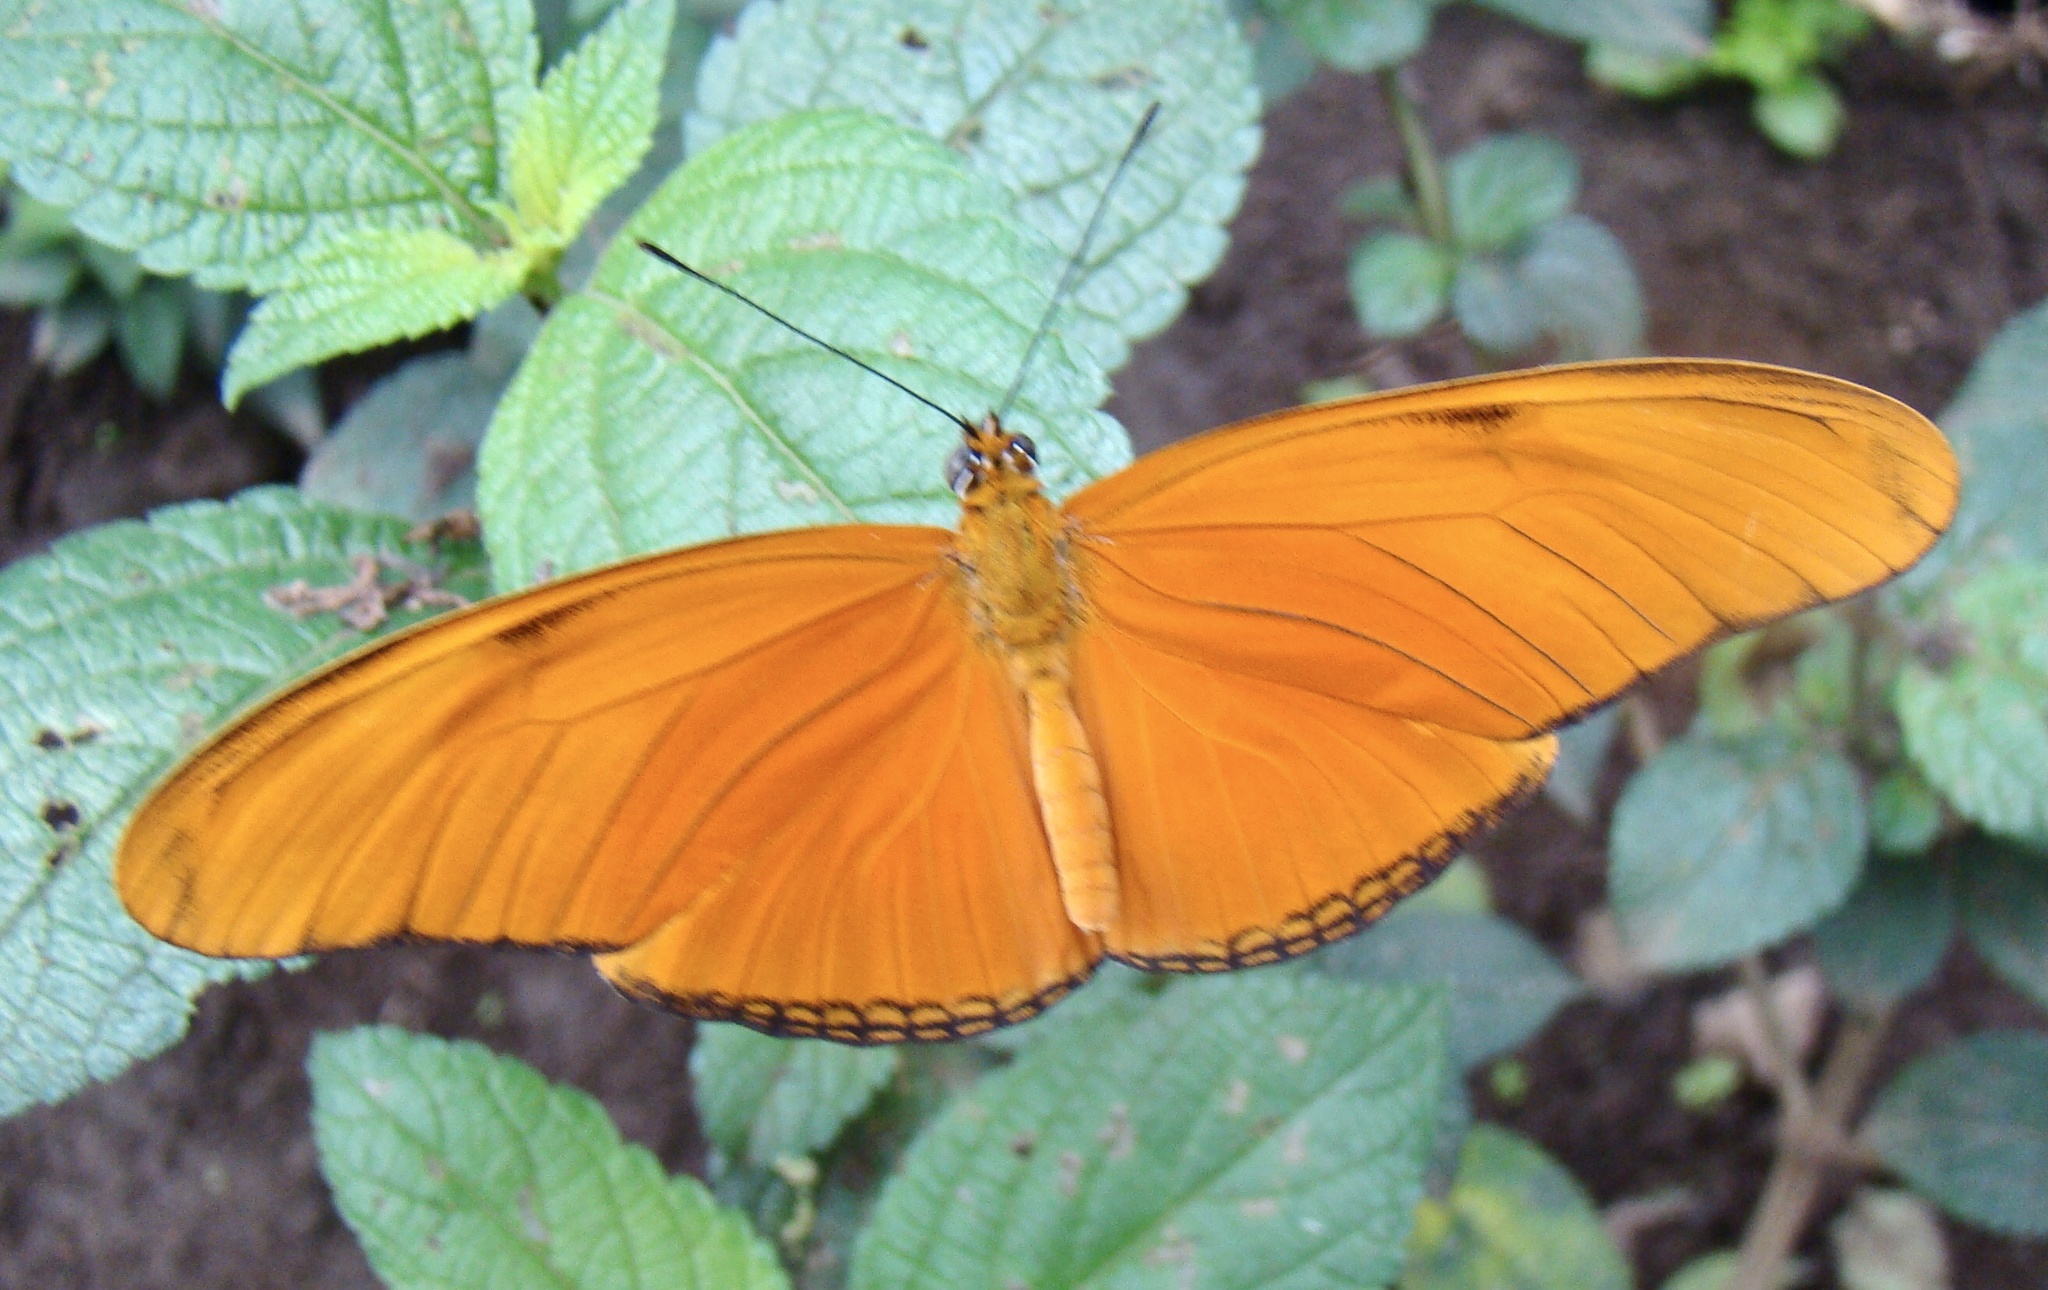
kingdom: Animalia
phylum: Arthropoda
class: Insecta
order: Lepidoptera
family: Nymphalidae
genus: Dryas
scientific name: Dryas iulia
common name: Flambeau
